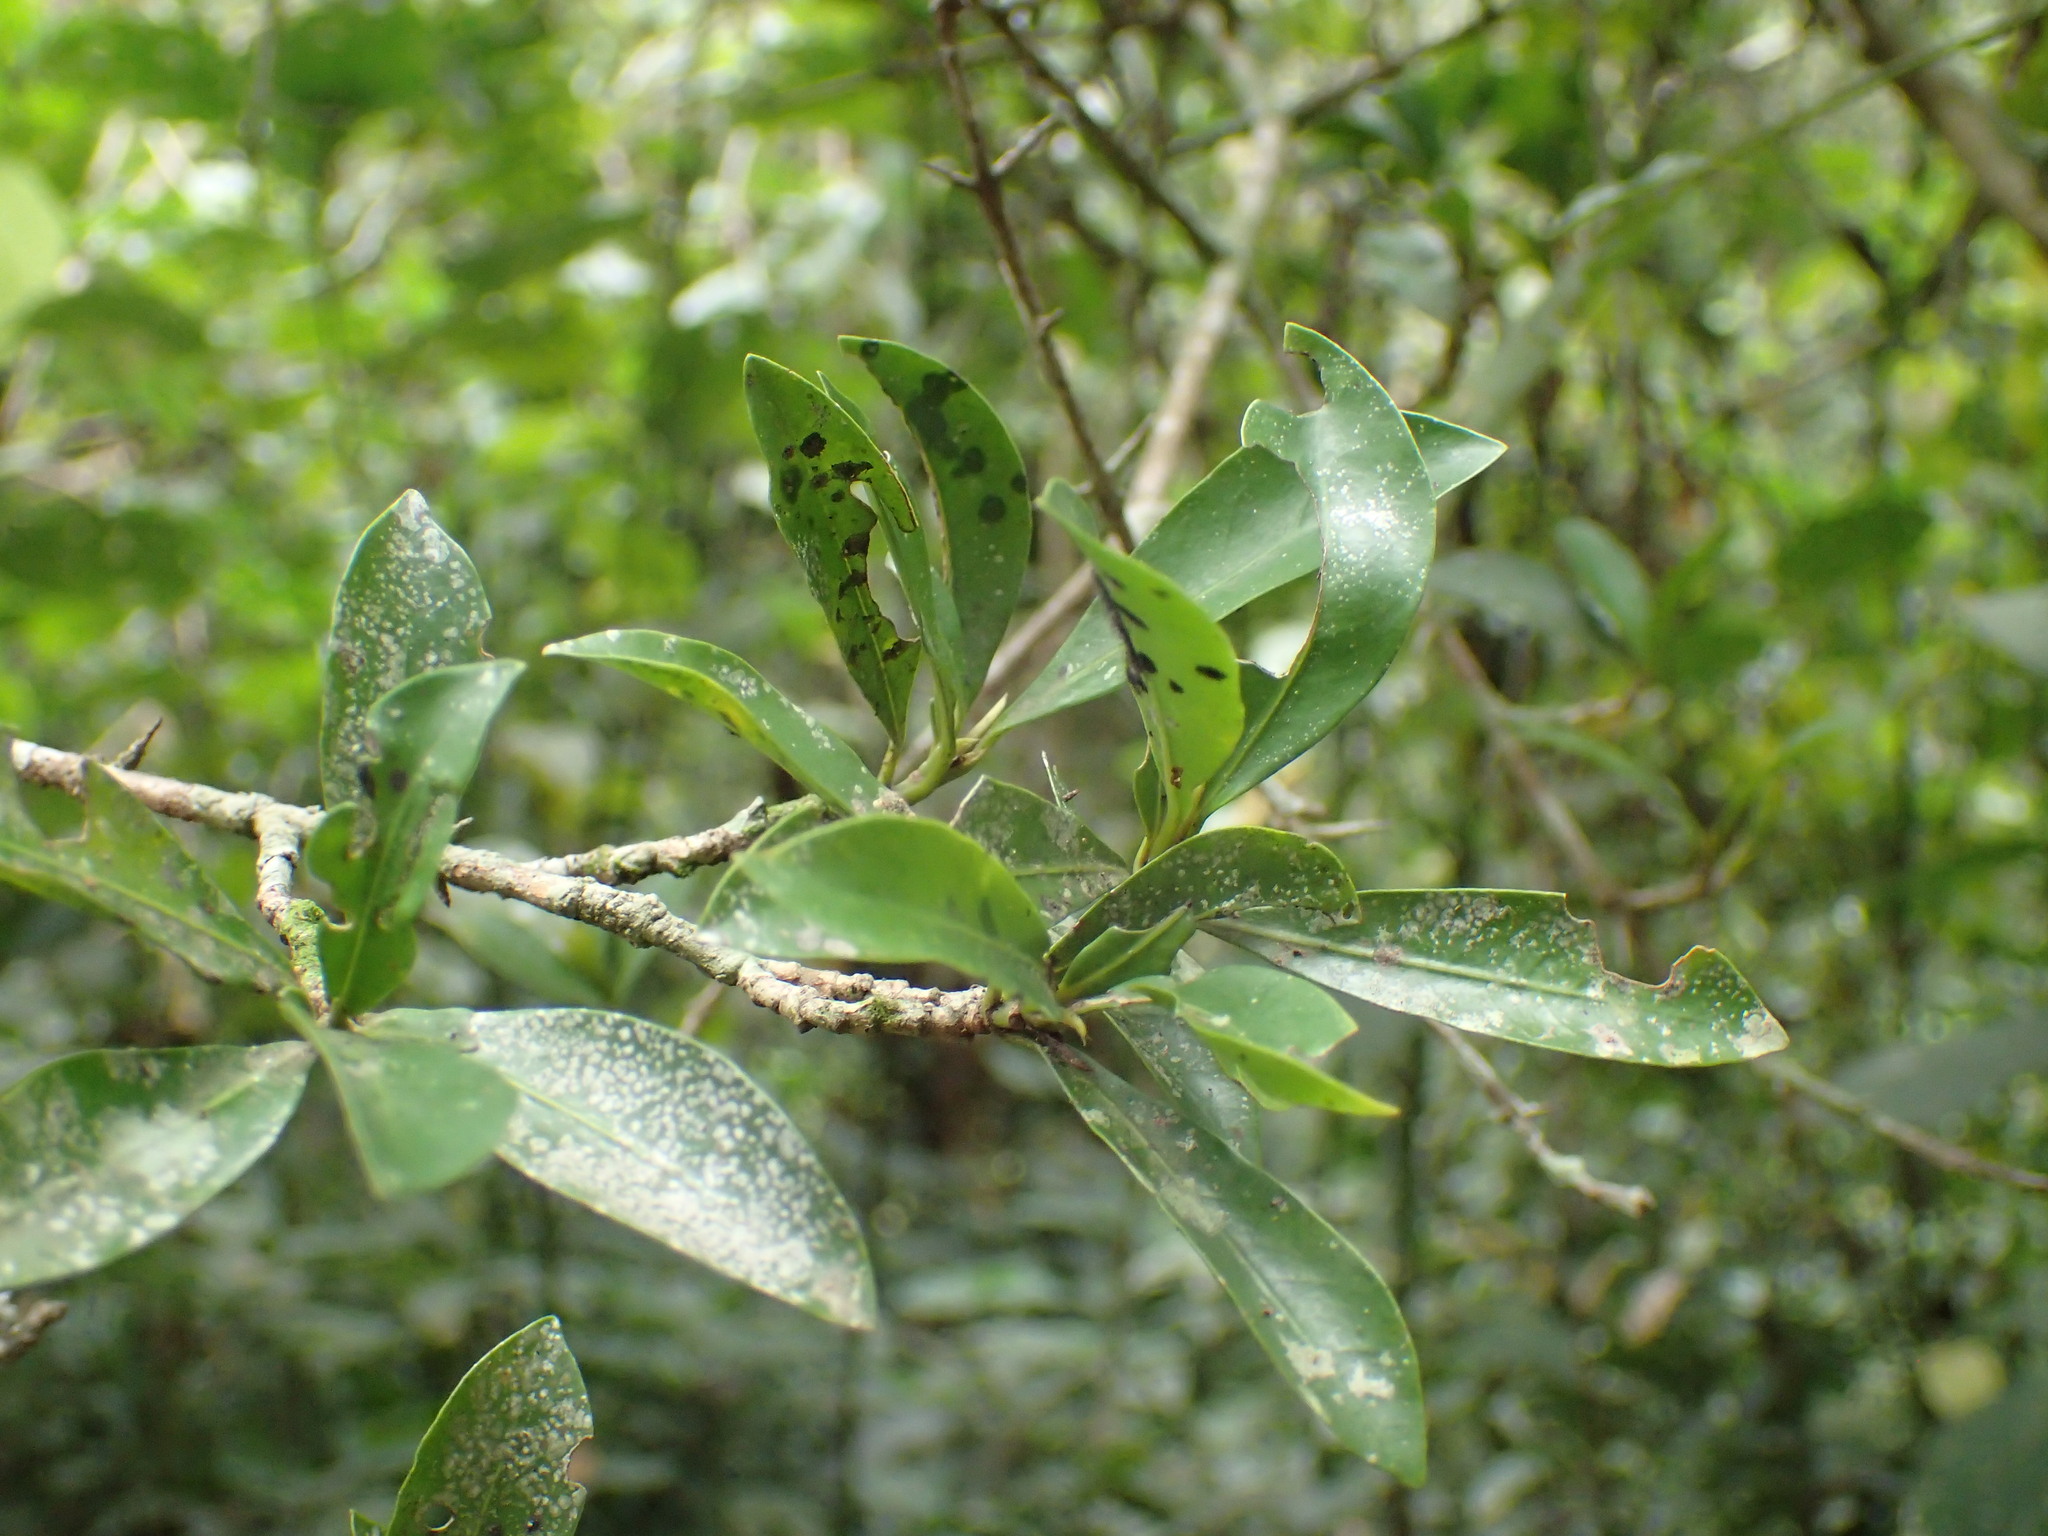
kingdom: Plantae
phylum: Tracheophyta
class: Magnoliopsida
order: Gentianales
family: Rubiaceae
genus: Hyperacanthus
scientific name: Hyperacanthus amoenus
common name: Spiny gardenia
